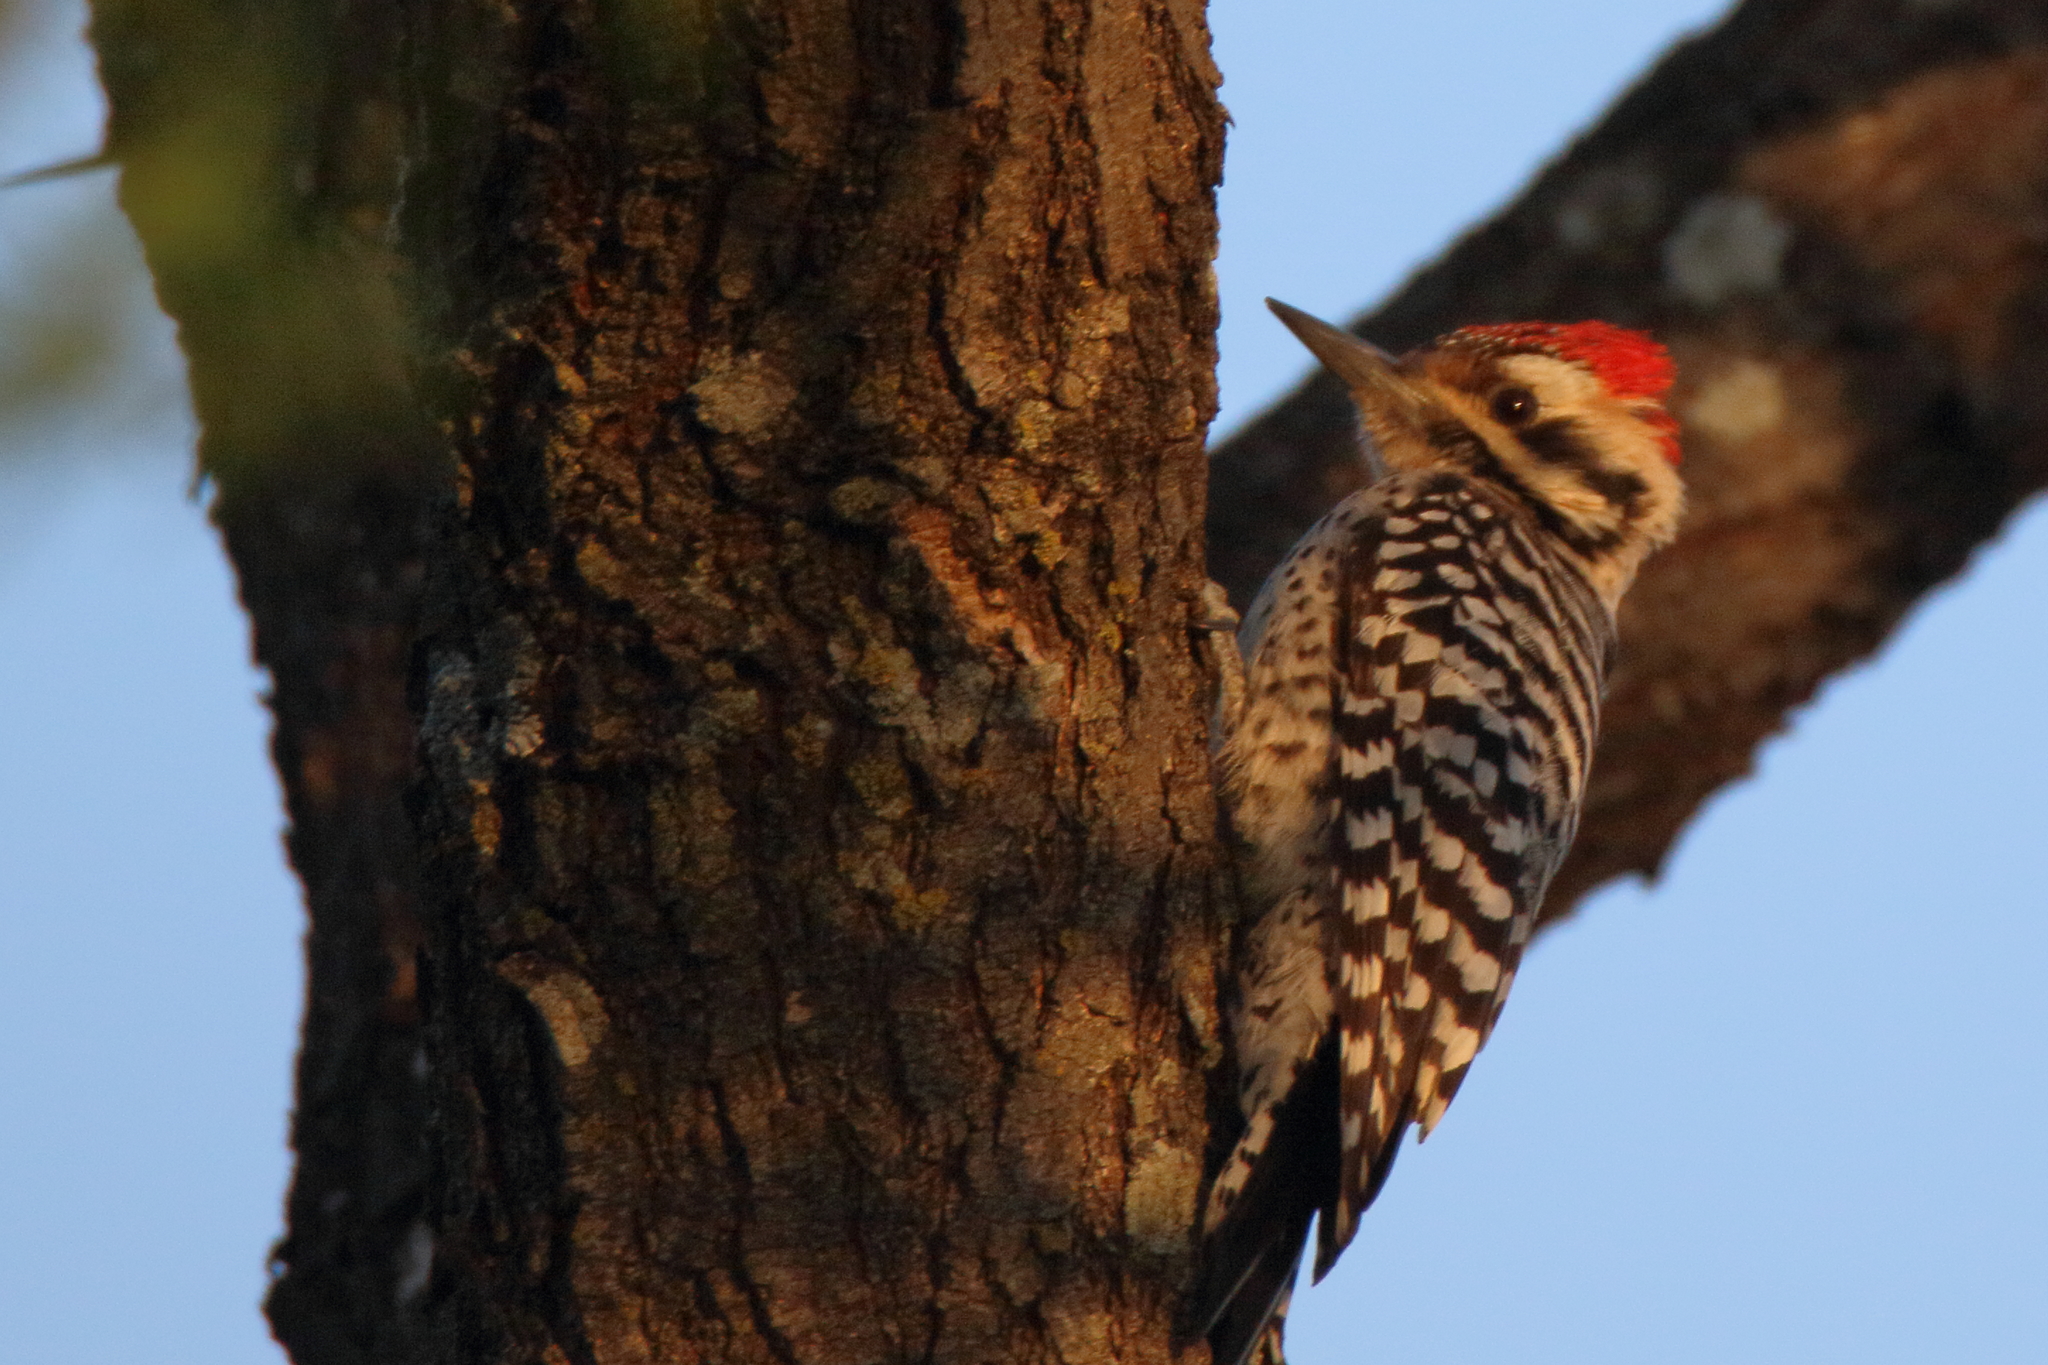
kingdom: Animalia
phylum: Chordata
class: Aves
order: Piciformes
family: Picidae
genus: Dryobates
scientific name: Dryobates scalaris
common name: Ladder-backed woodpecker
